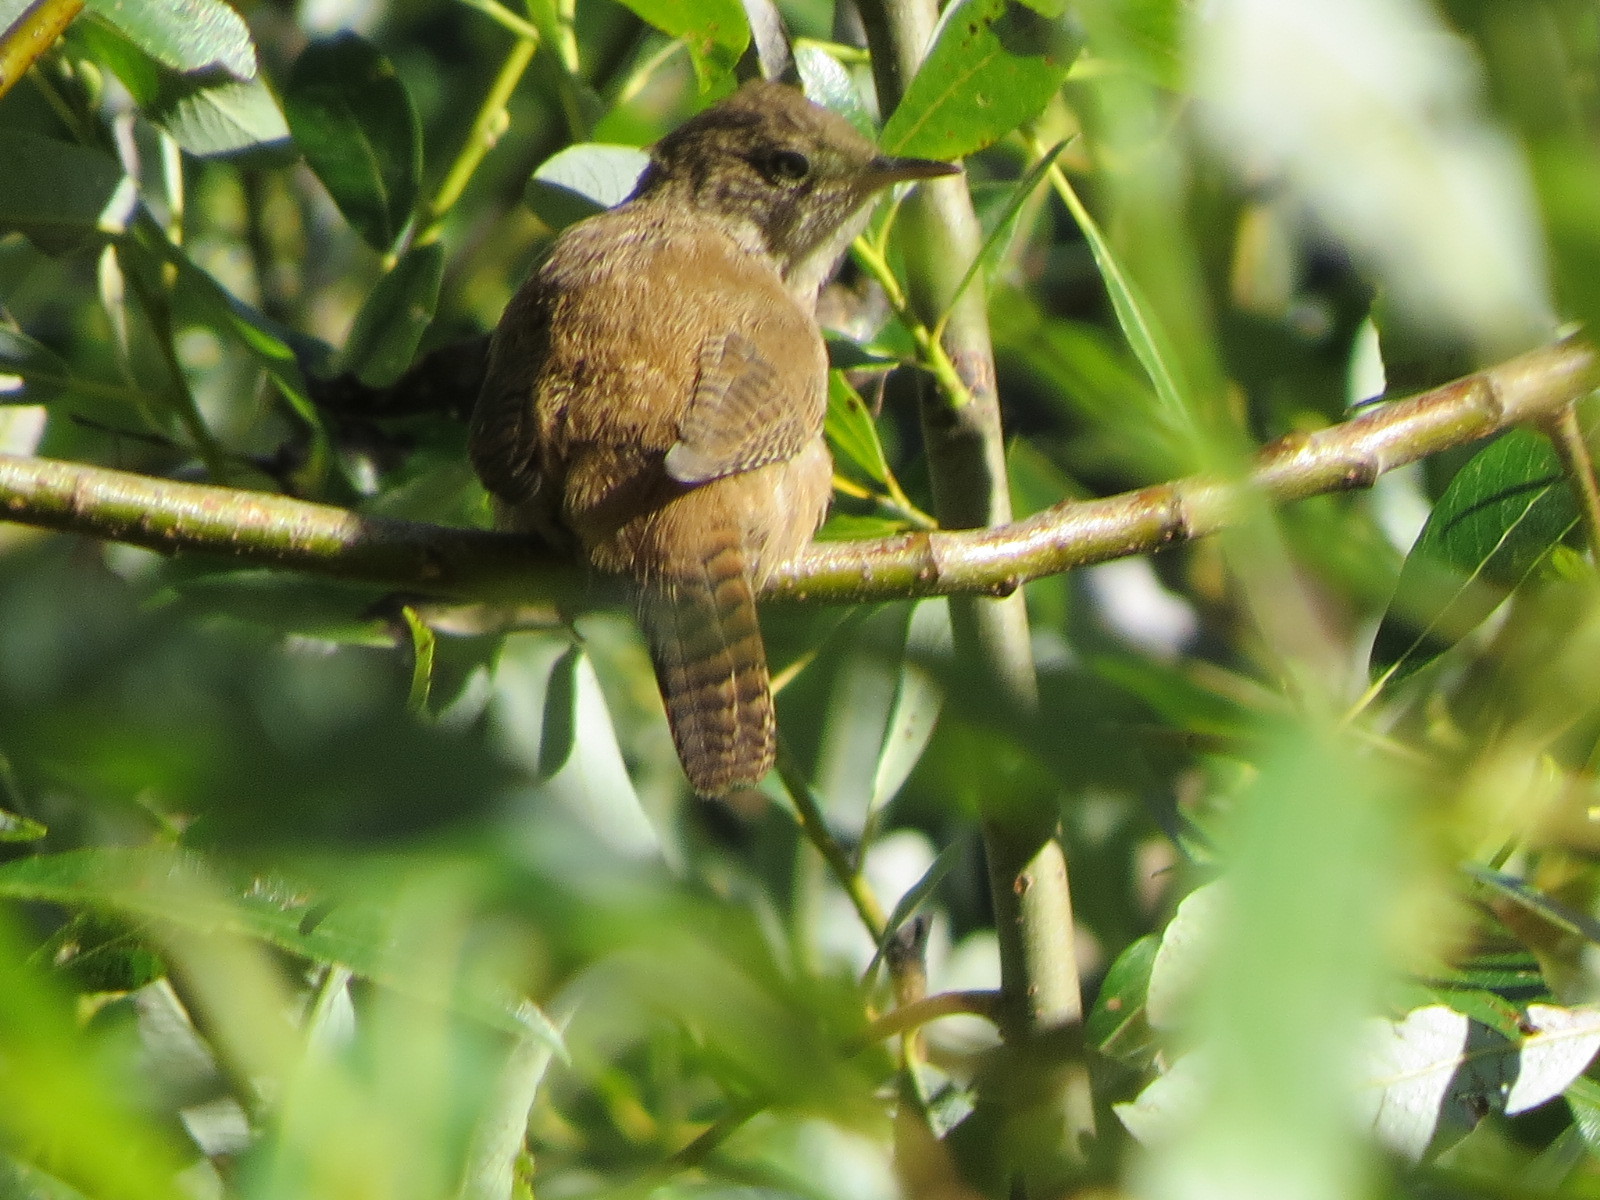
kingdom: Animalia
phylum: Chordata
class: Aves
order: Passeriformes
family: Troglodytidae
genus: Troglodytes
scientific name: Troglodytes aedon
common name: House wren
